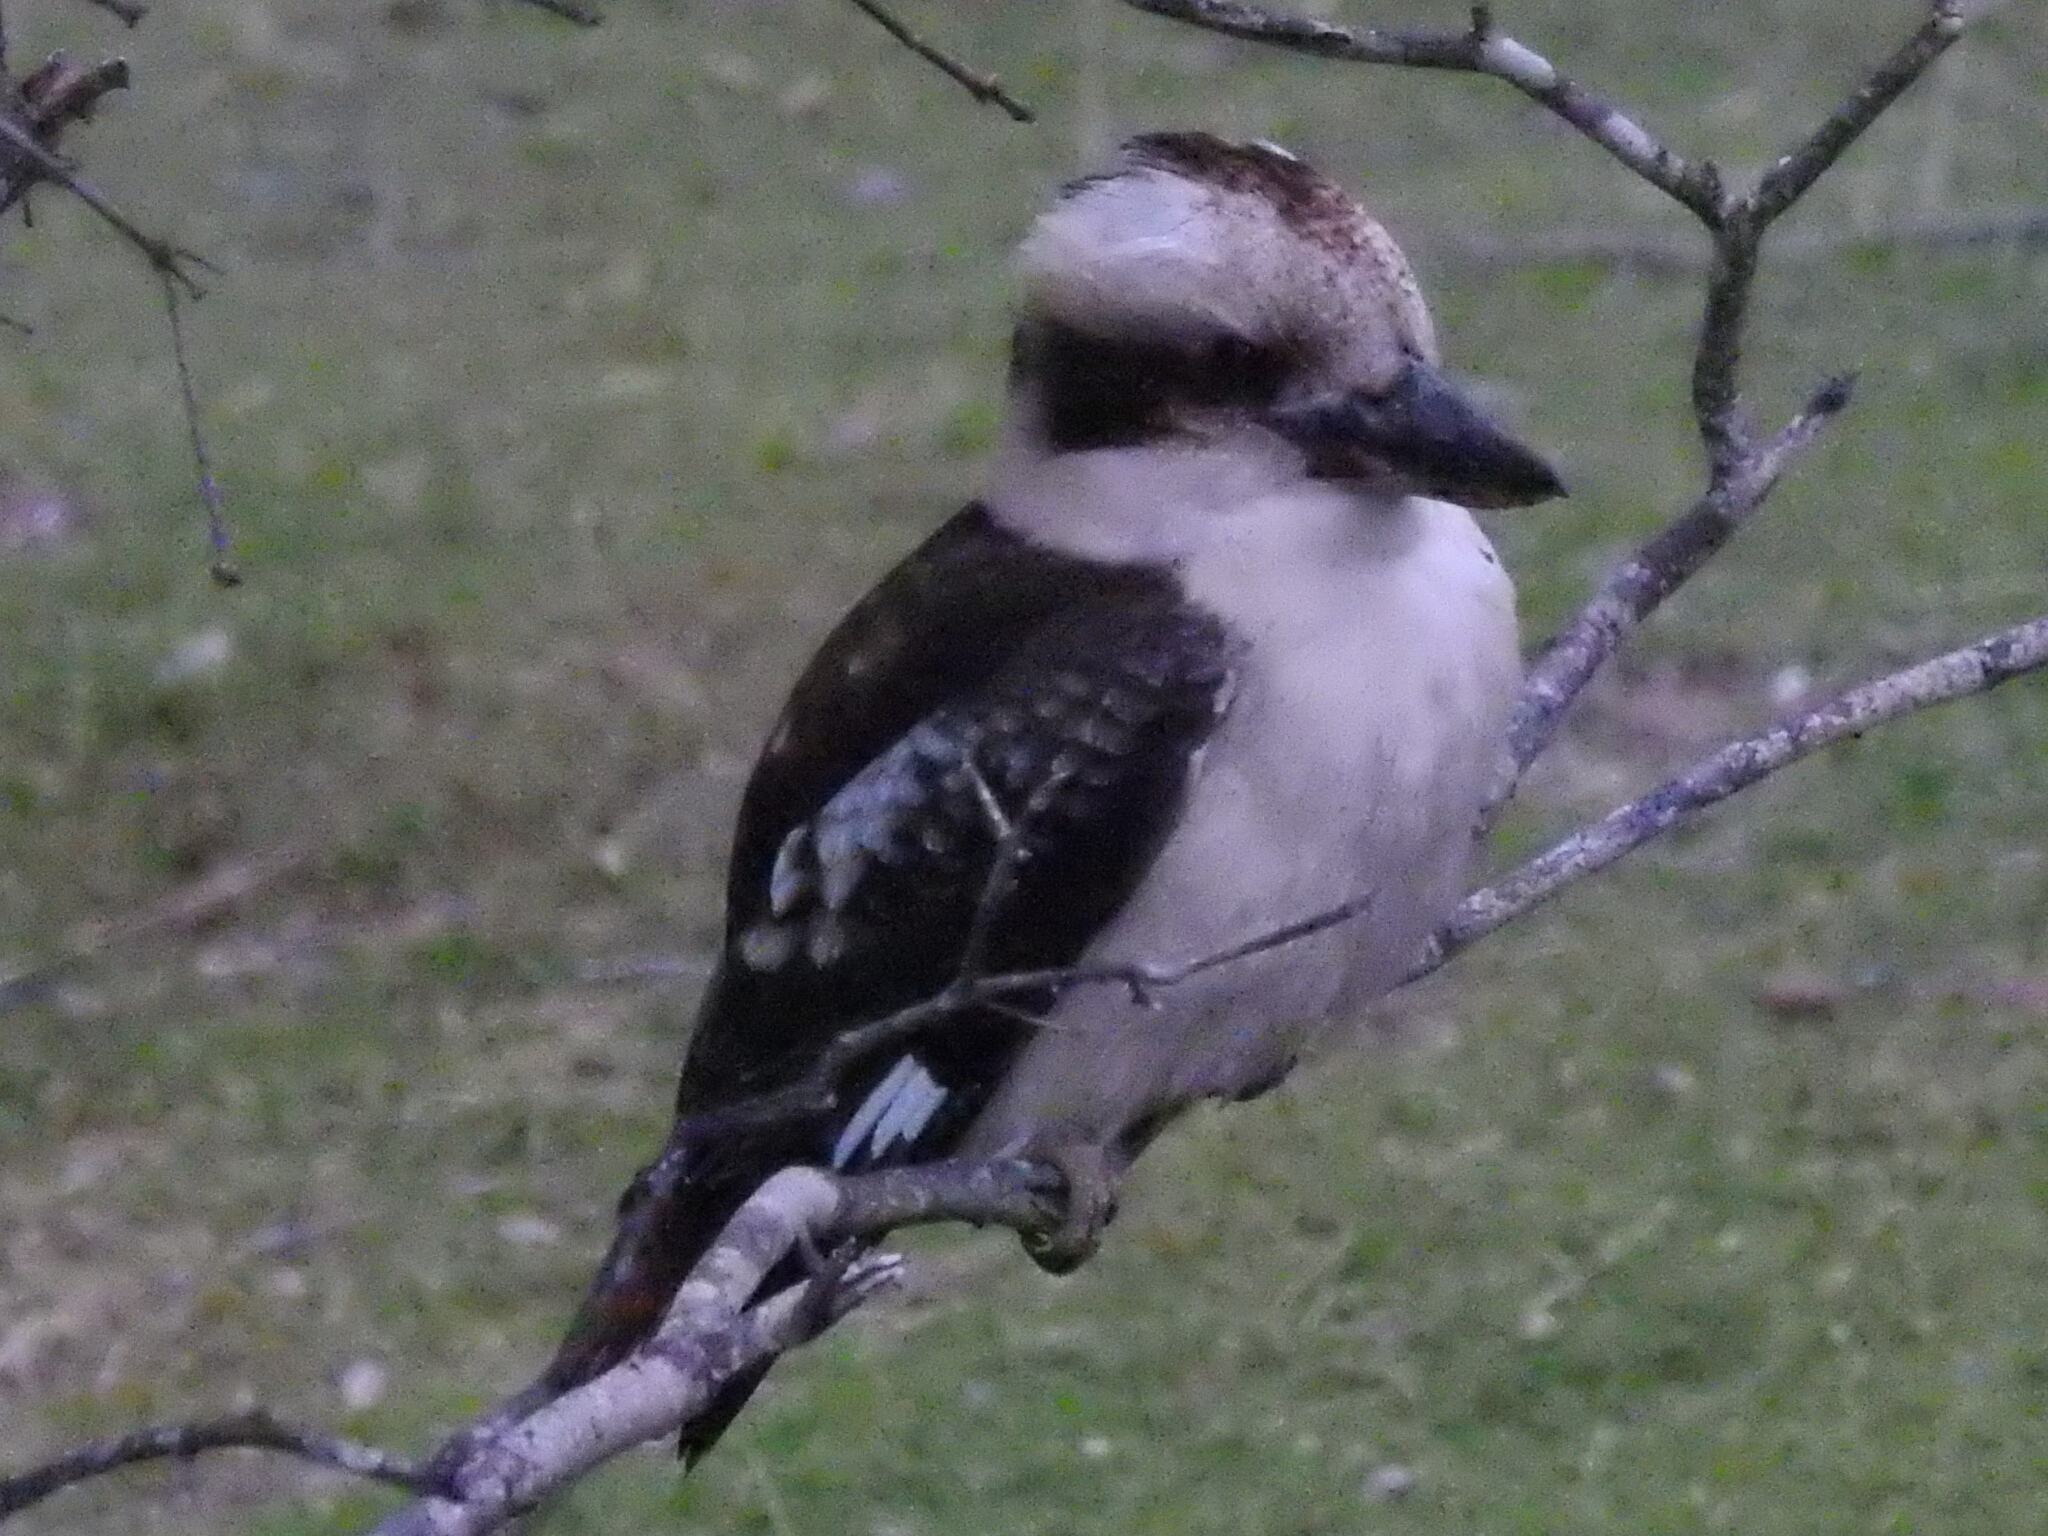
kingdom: Animalia
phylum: Chordata
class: Aves
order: Coraciiformes
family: Alcedinidae
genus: Dacelo
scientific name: Dacelo novaeguineae
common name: Laughing kookaburra
